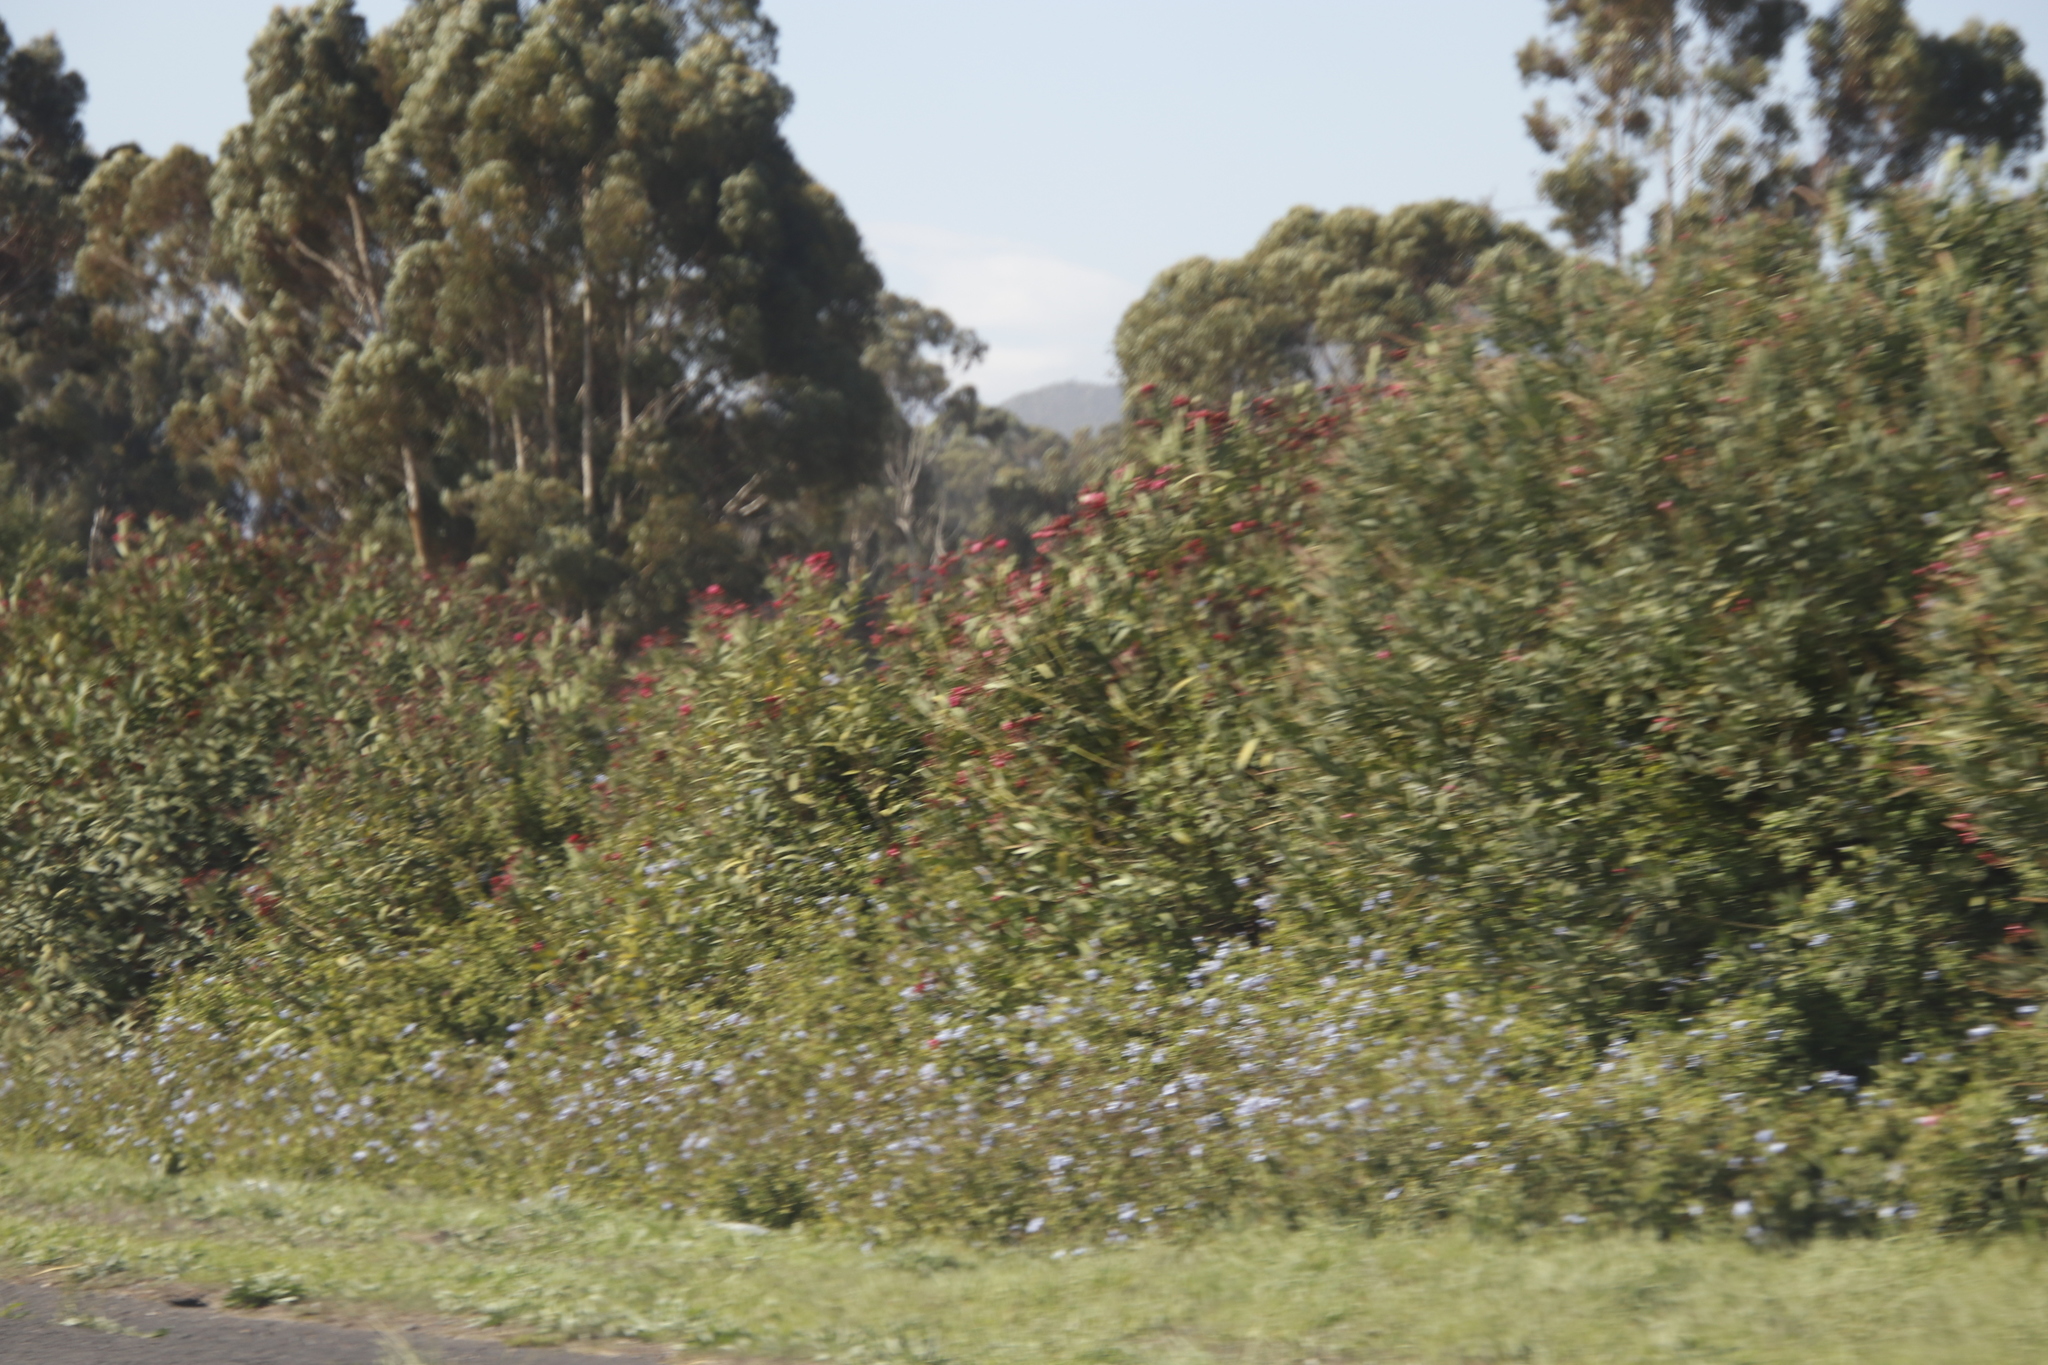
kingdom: Plantae
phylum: Tracheophyta
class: Magnoliopsida
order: Caryophyllales
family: Plumbaginaceae
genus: Plumbago
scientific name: Plumbago auriculata
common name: Cape leadwort
